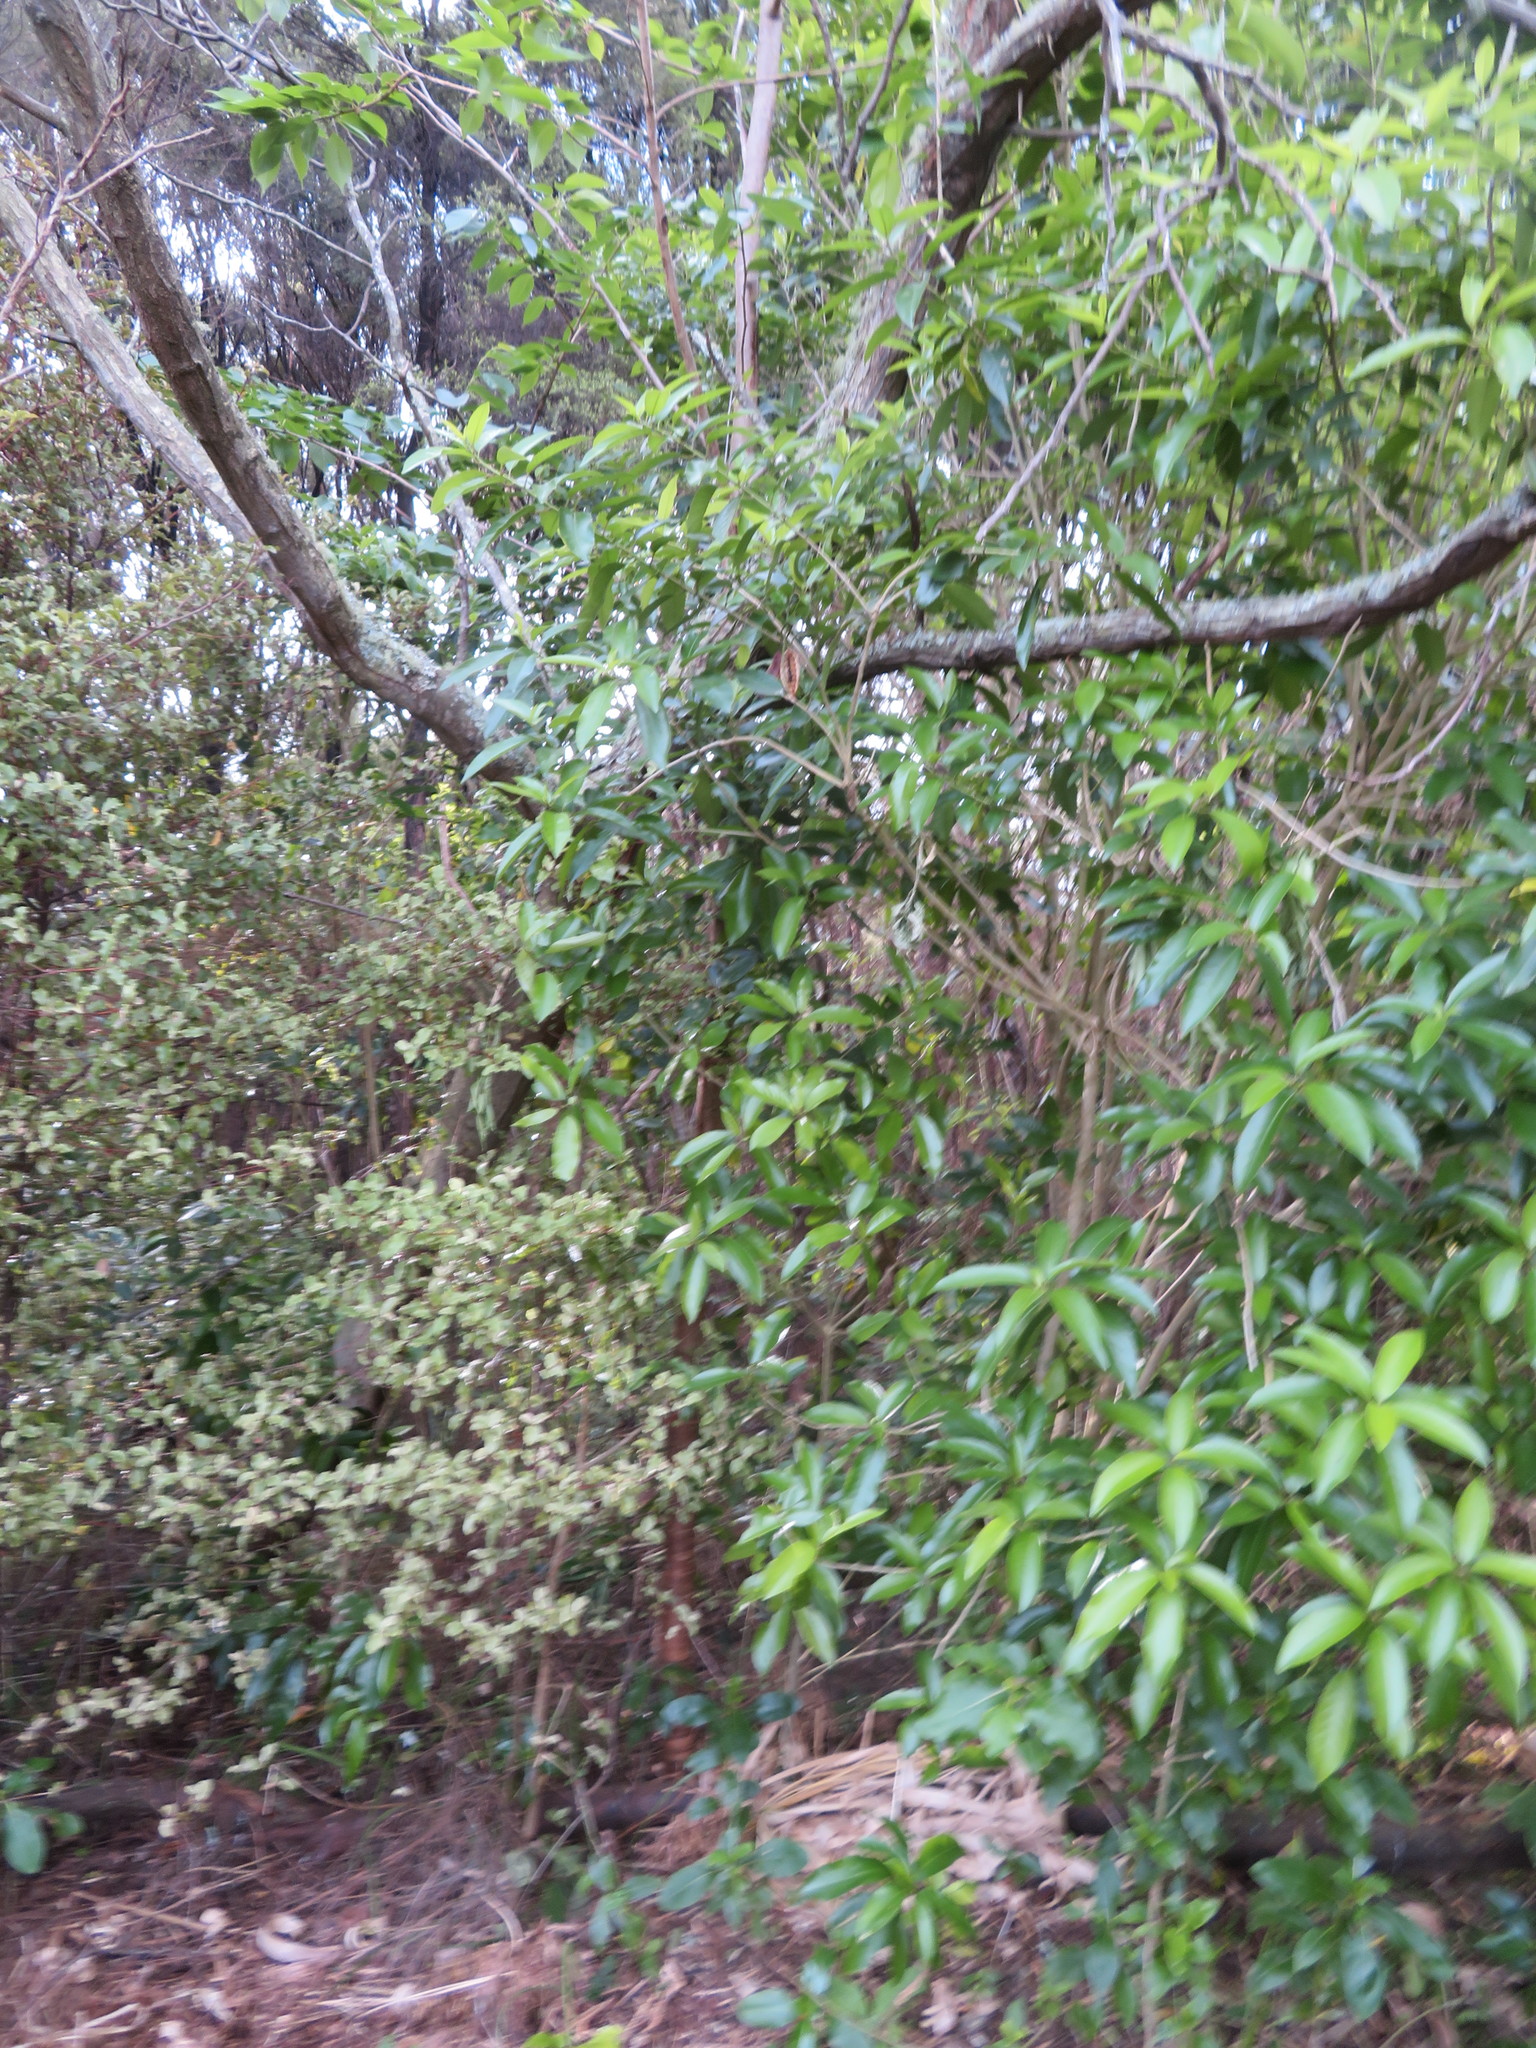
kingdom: Plantae
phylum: Tracheophyta
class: Magnoliopsida
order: Malpighiales
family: Violaceae
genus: Melicytus
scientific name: Melicytus ramiflorus
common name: Mahoe
